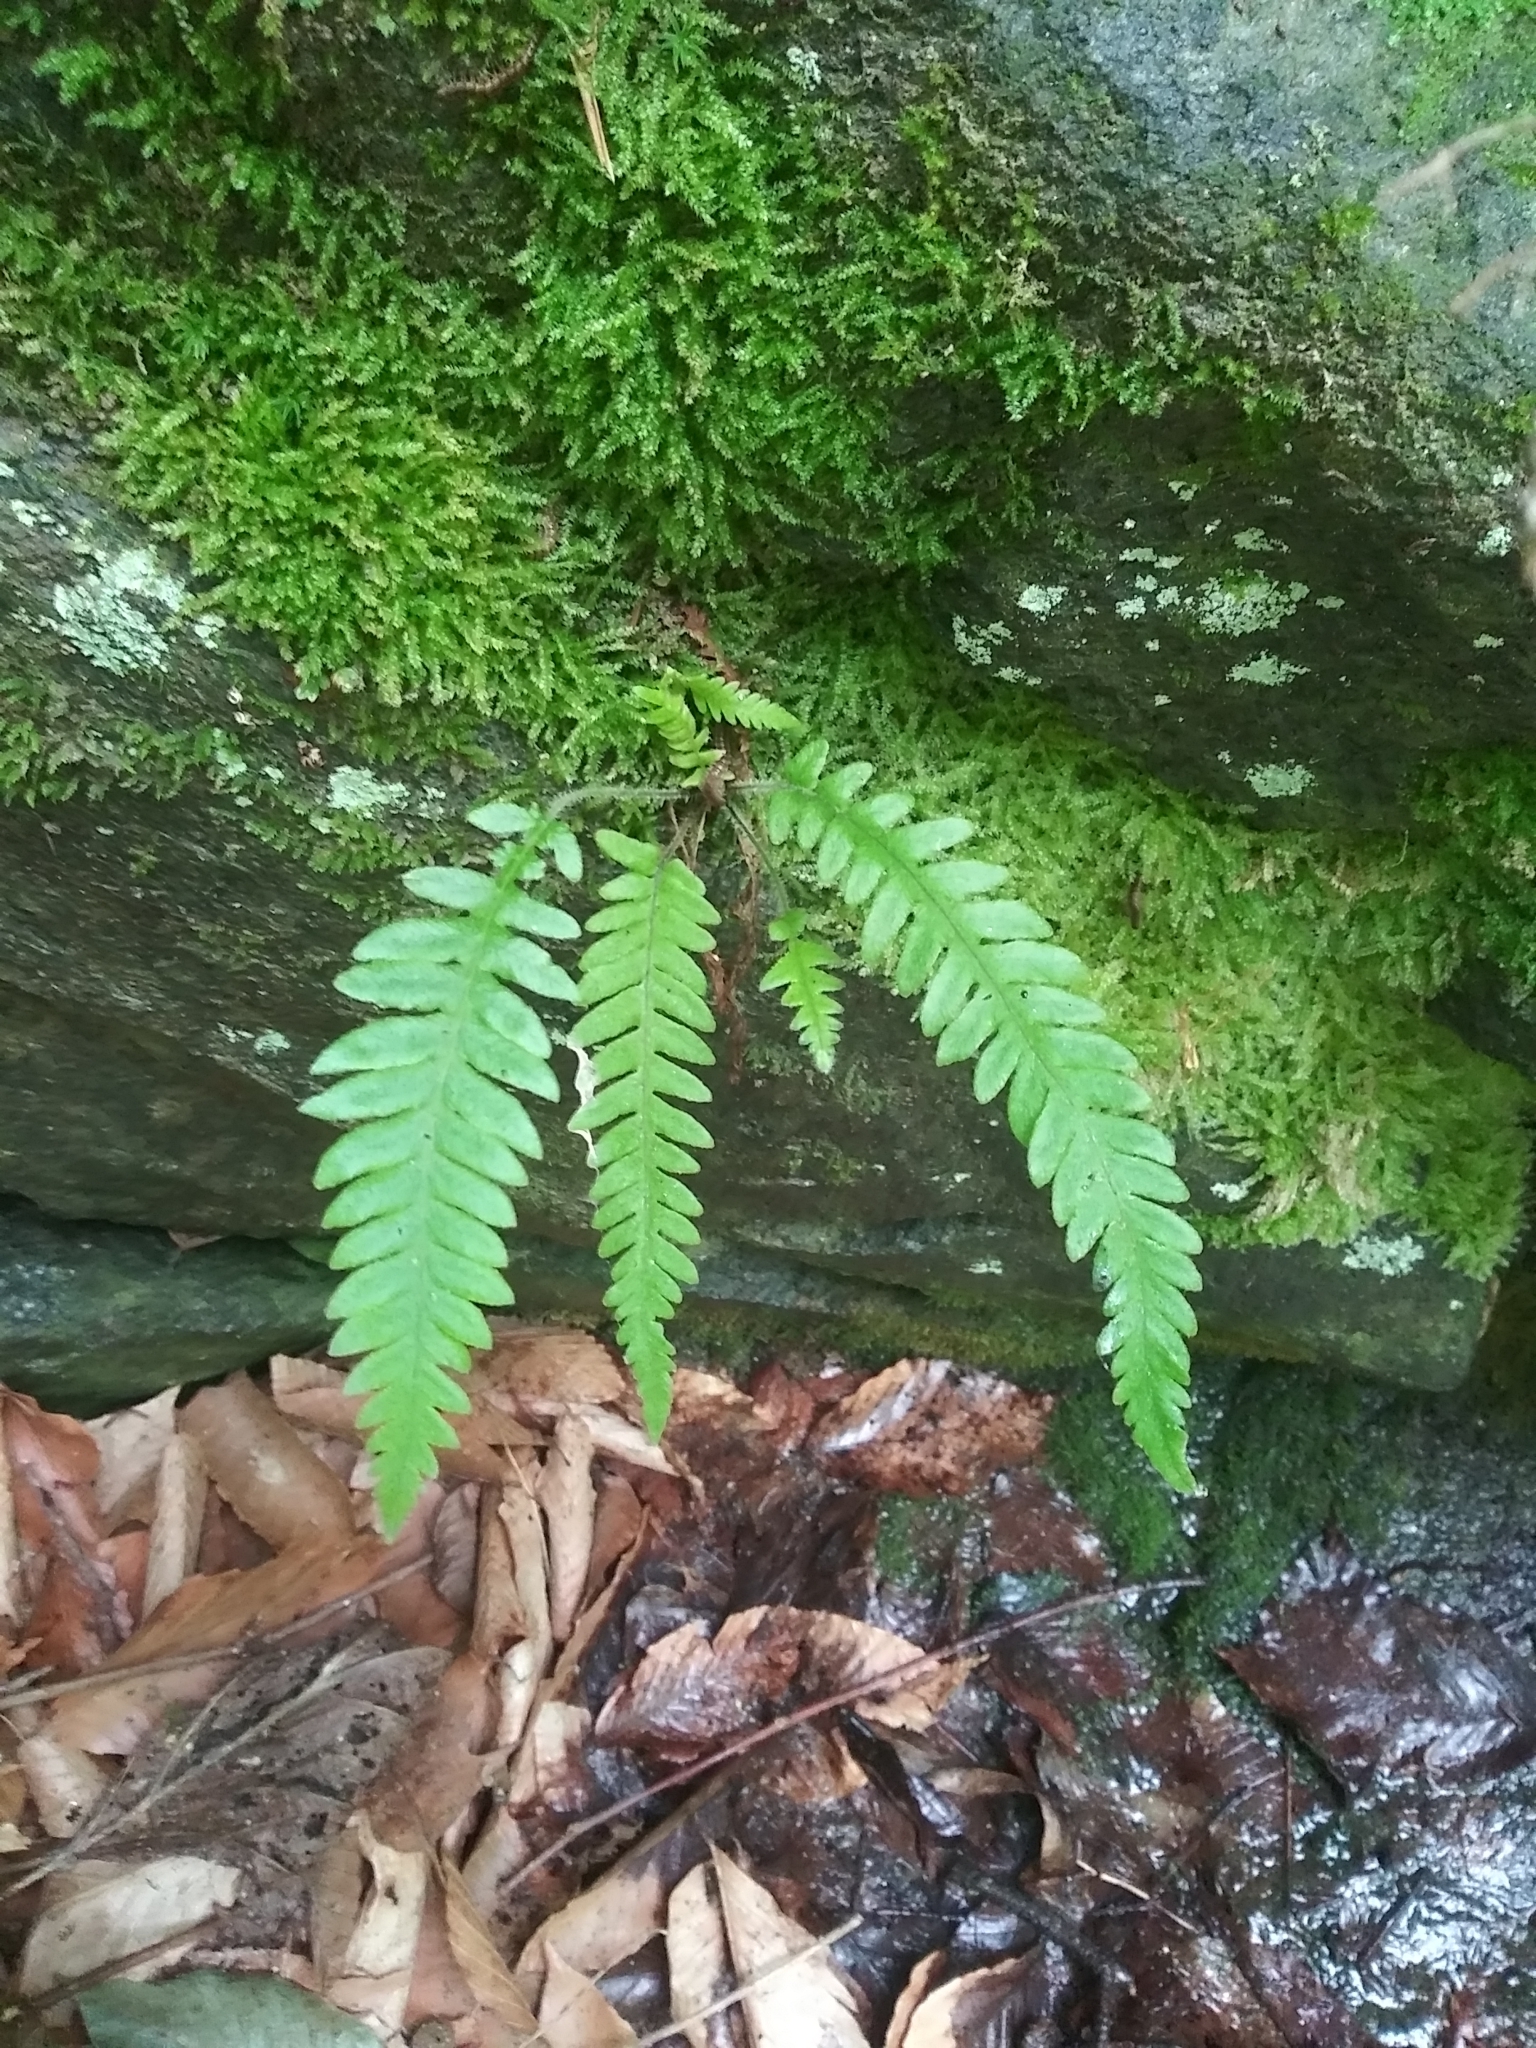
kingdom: Plantae
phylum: Tracheophyta
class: Polypodiopsida
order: Polypodiales
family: Thelypteridaceae
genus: Phegopteris
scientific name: Phegopteris decursive-pinnata
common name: Japanese beech fern
